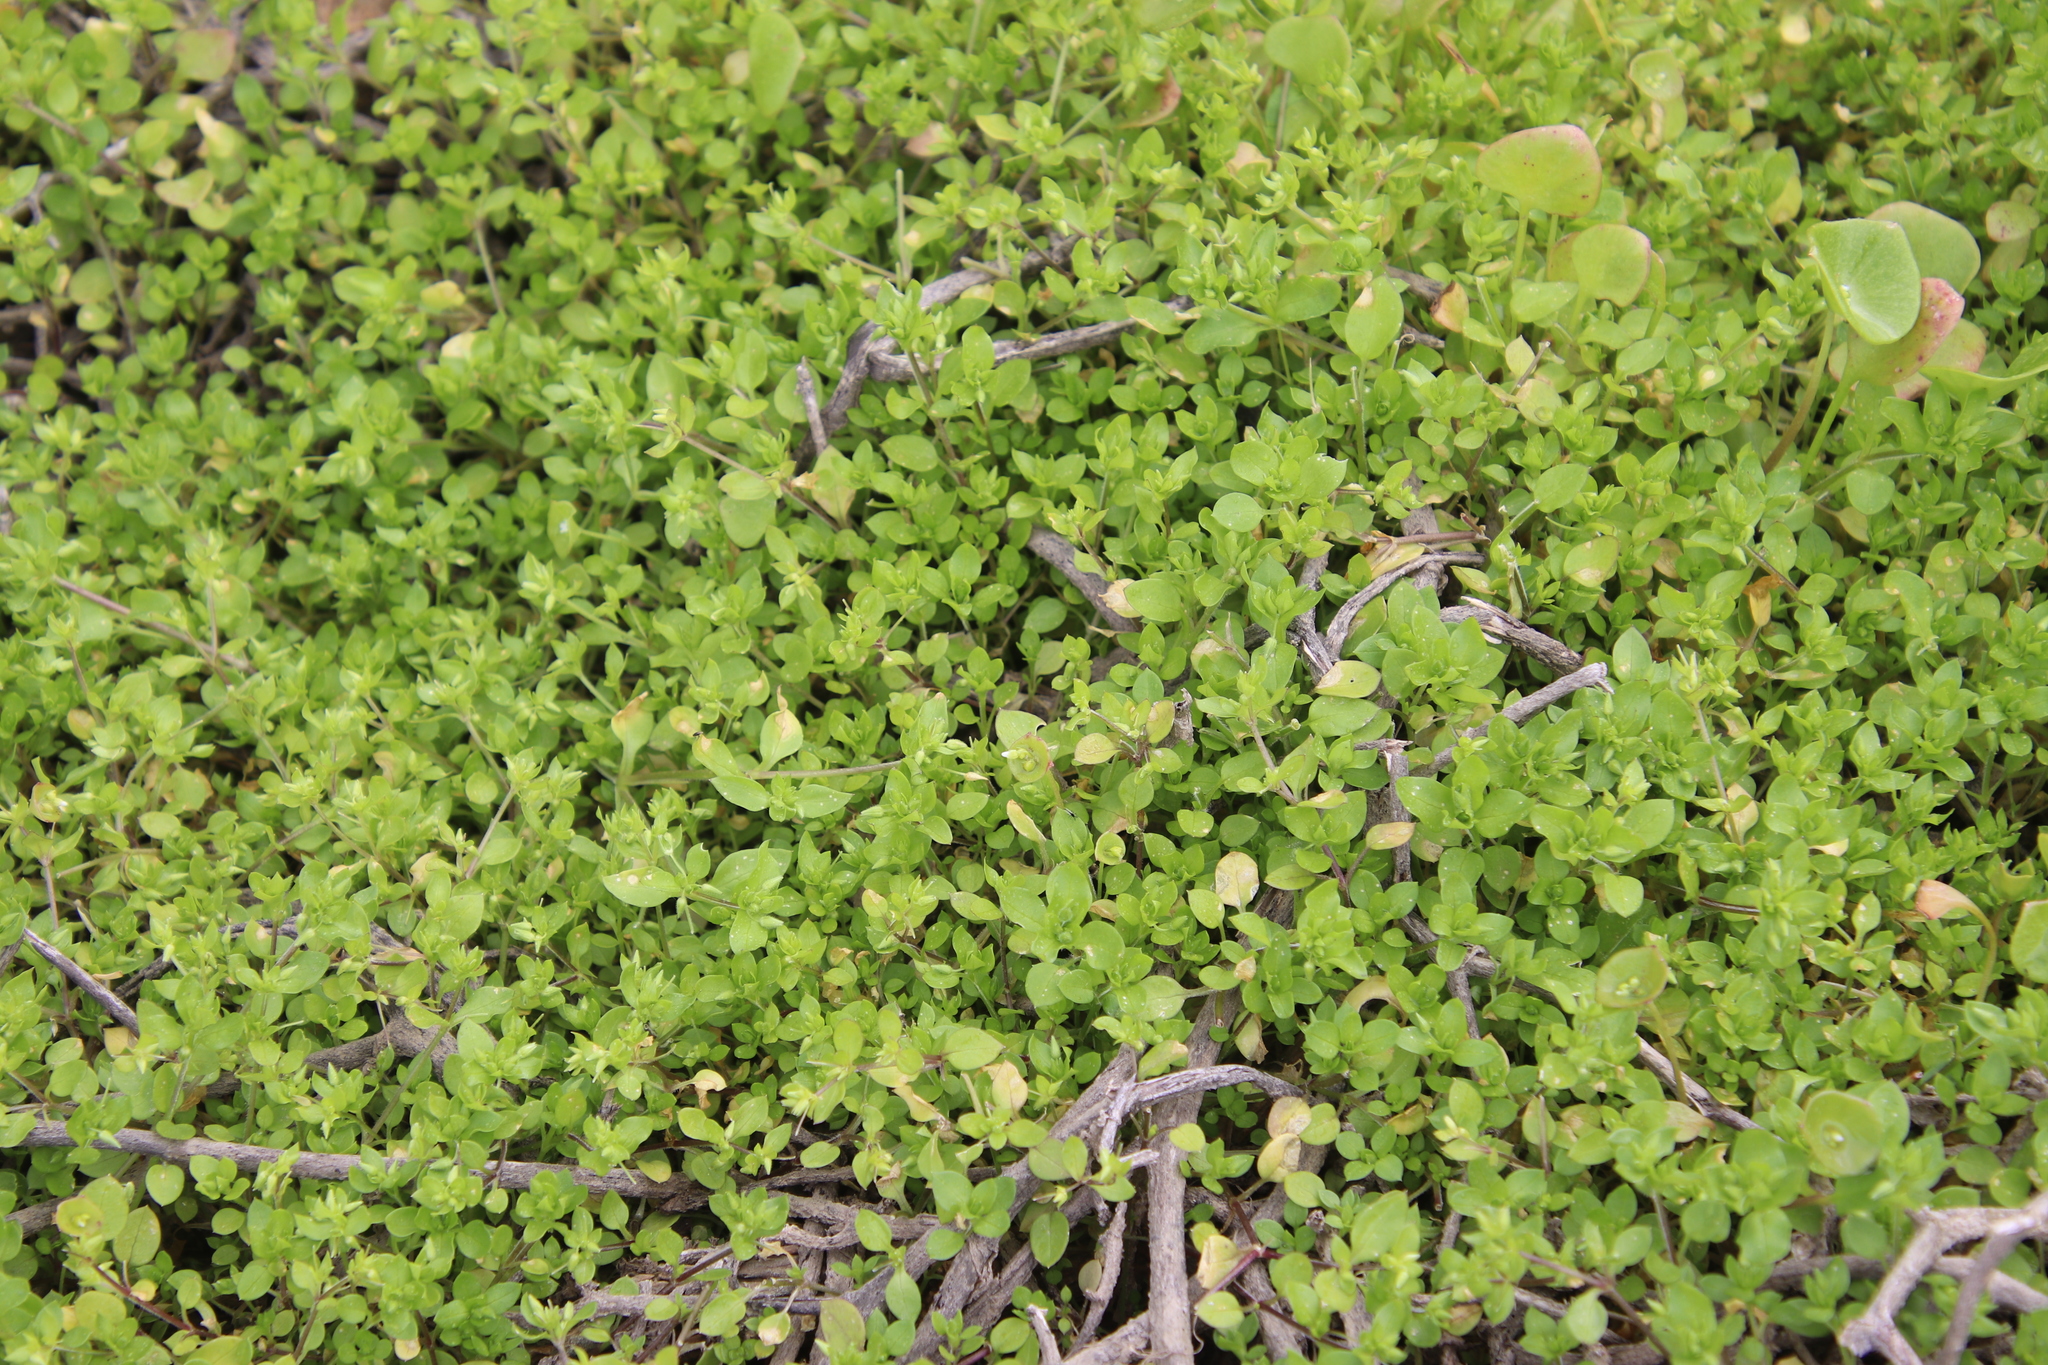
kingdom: Plantae
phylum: Tracheophyta
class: Magnoliopsida
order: Caryophyllales
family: Caryophyllaceae
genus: Stellaria
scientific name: Stellaria media
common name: Common chickweed
